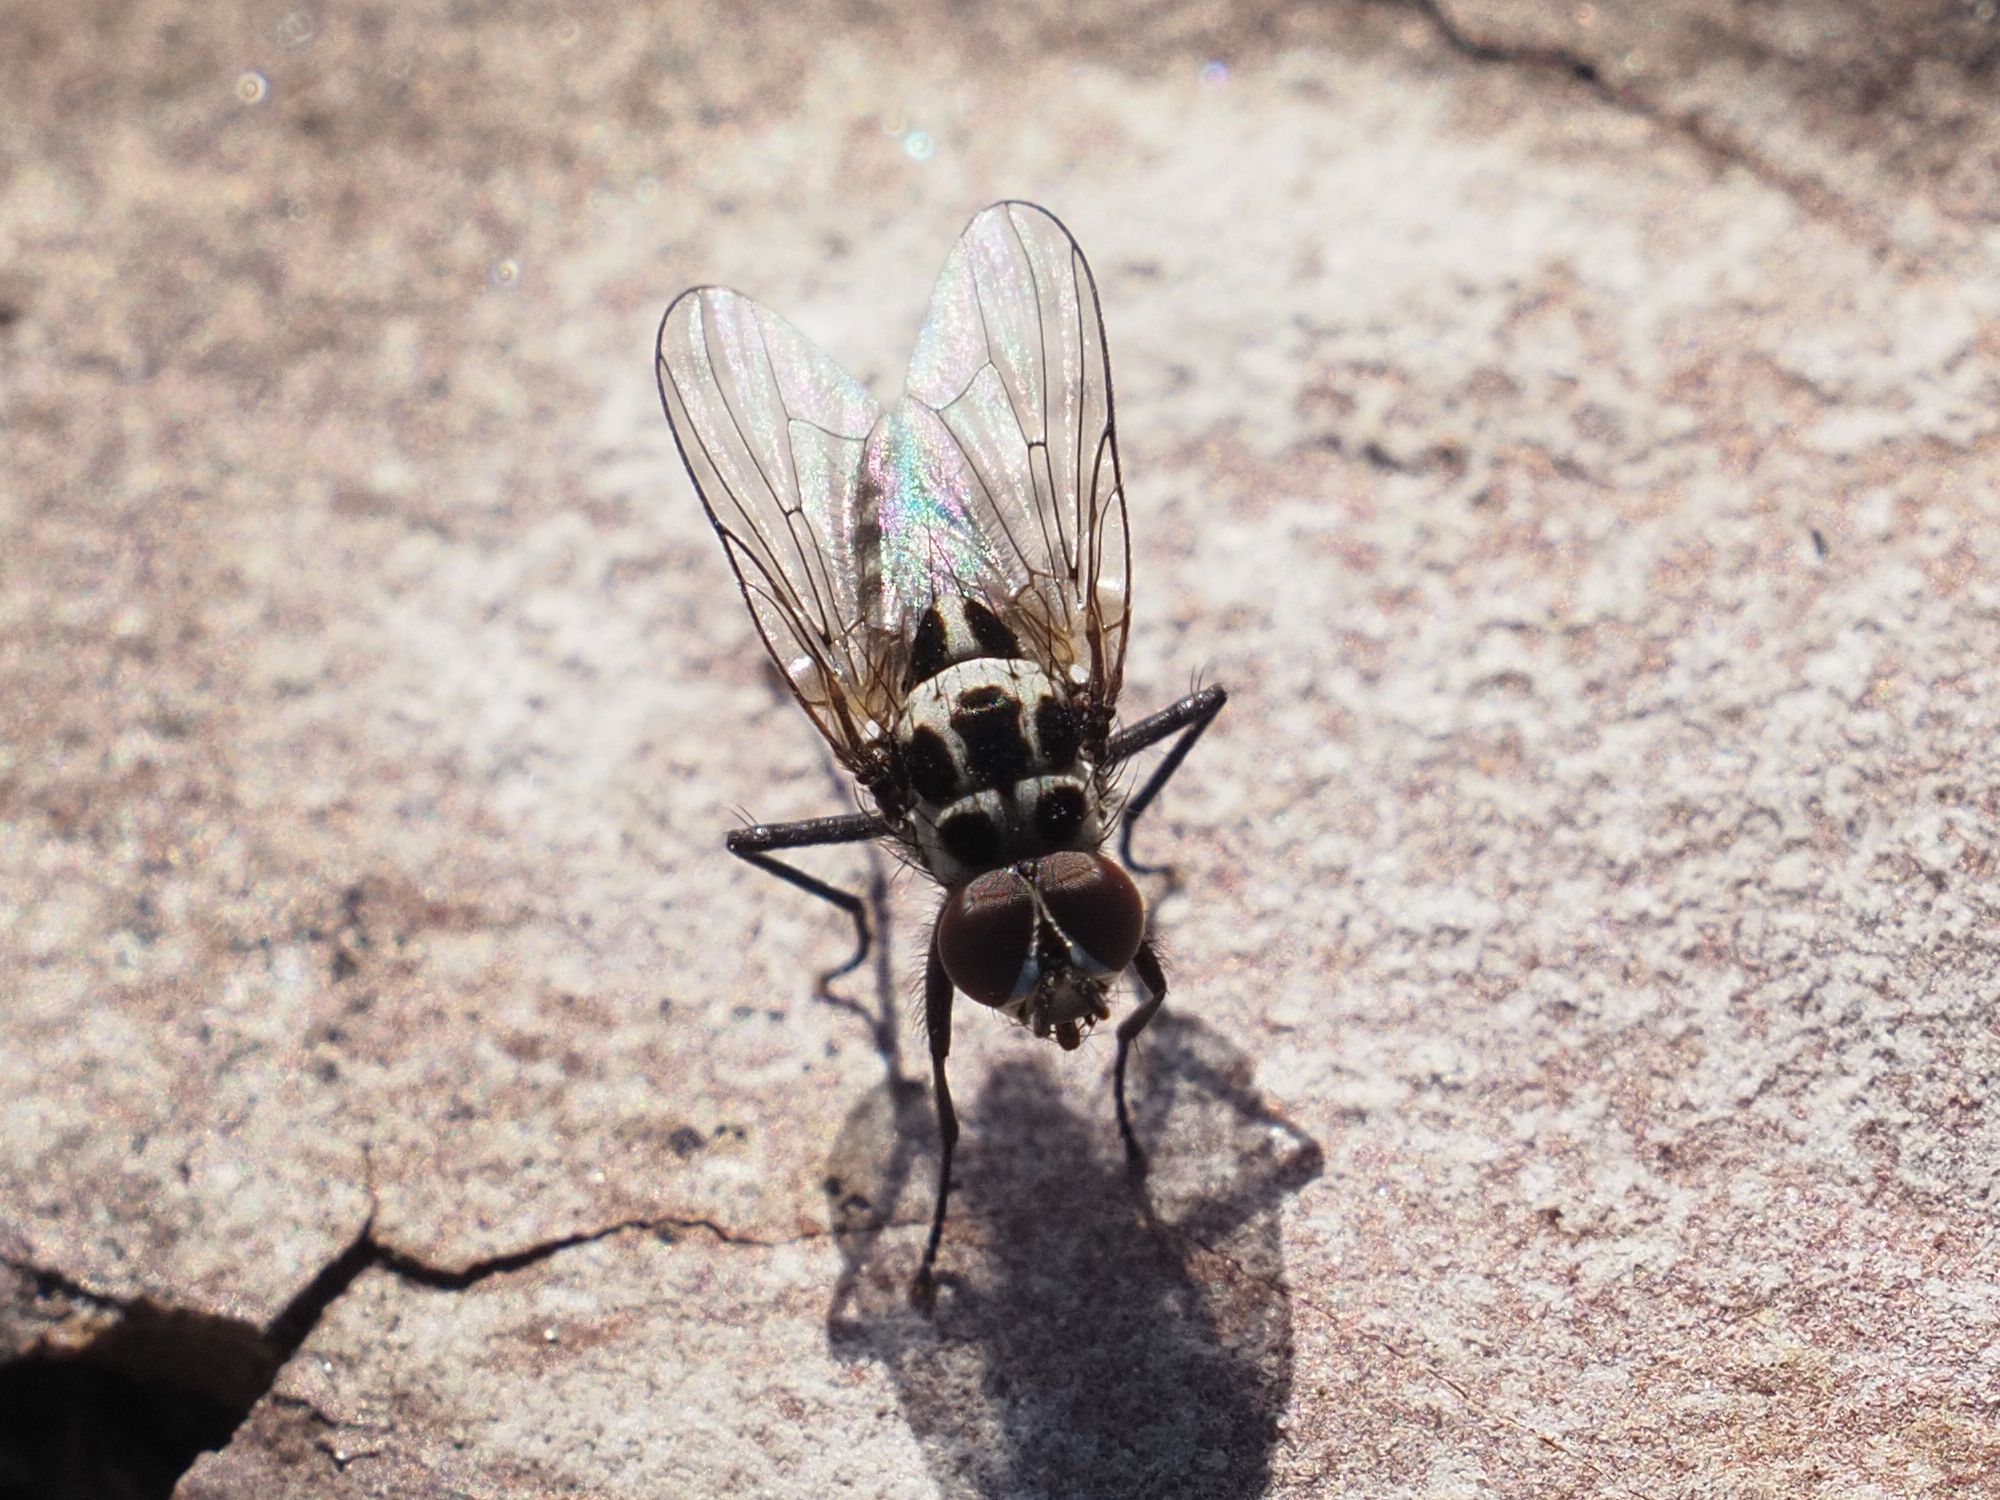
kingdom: Animalia
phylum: Arthropoda
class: Insecta
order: Diptera
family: Anthomyiidae
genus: Anthomyia
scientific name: Anthomyia quinquemaculata
